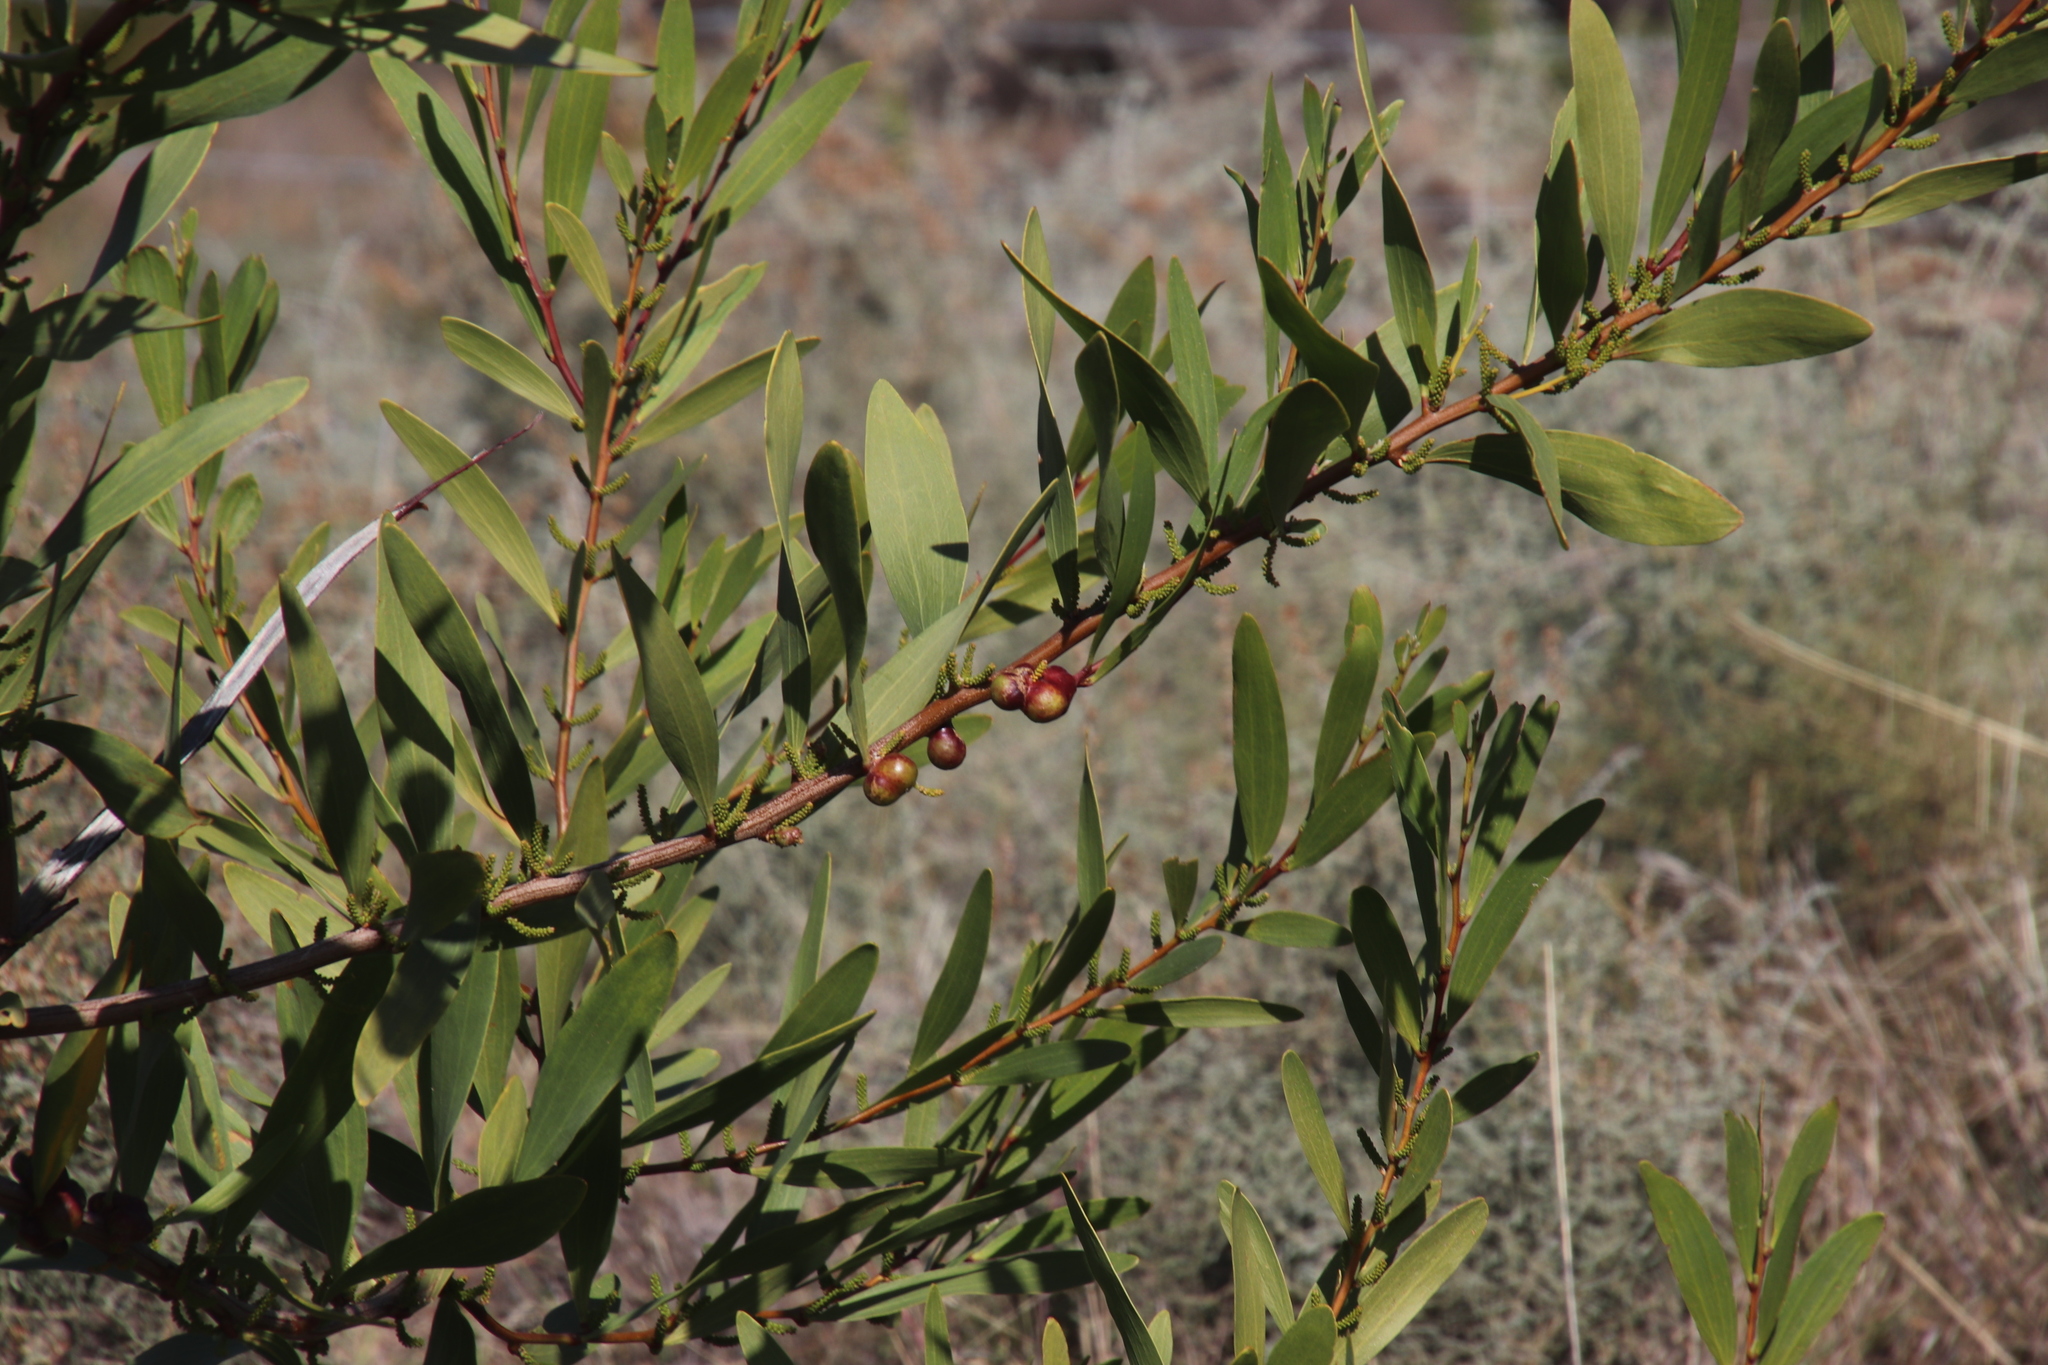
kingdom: Plantae
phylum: Tracheophyta
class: Magnoliopsida
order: Fabales
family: Fabaceae
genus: Acacia
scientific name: Acacia longifolia
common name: Sydney golden wattle
